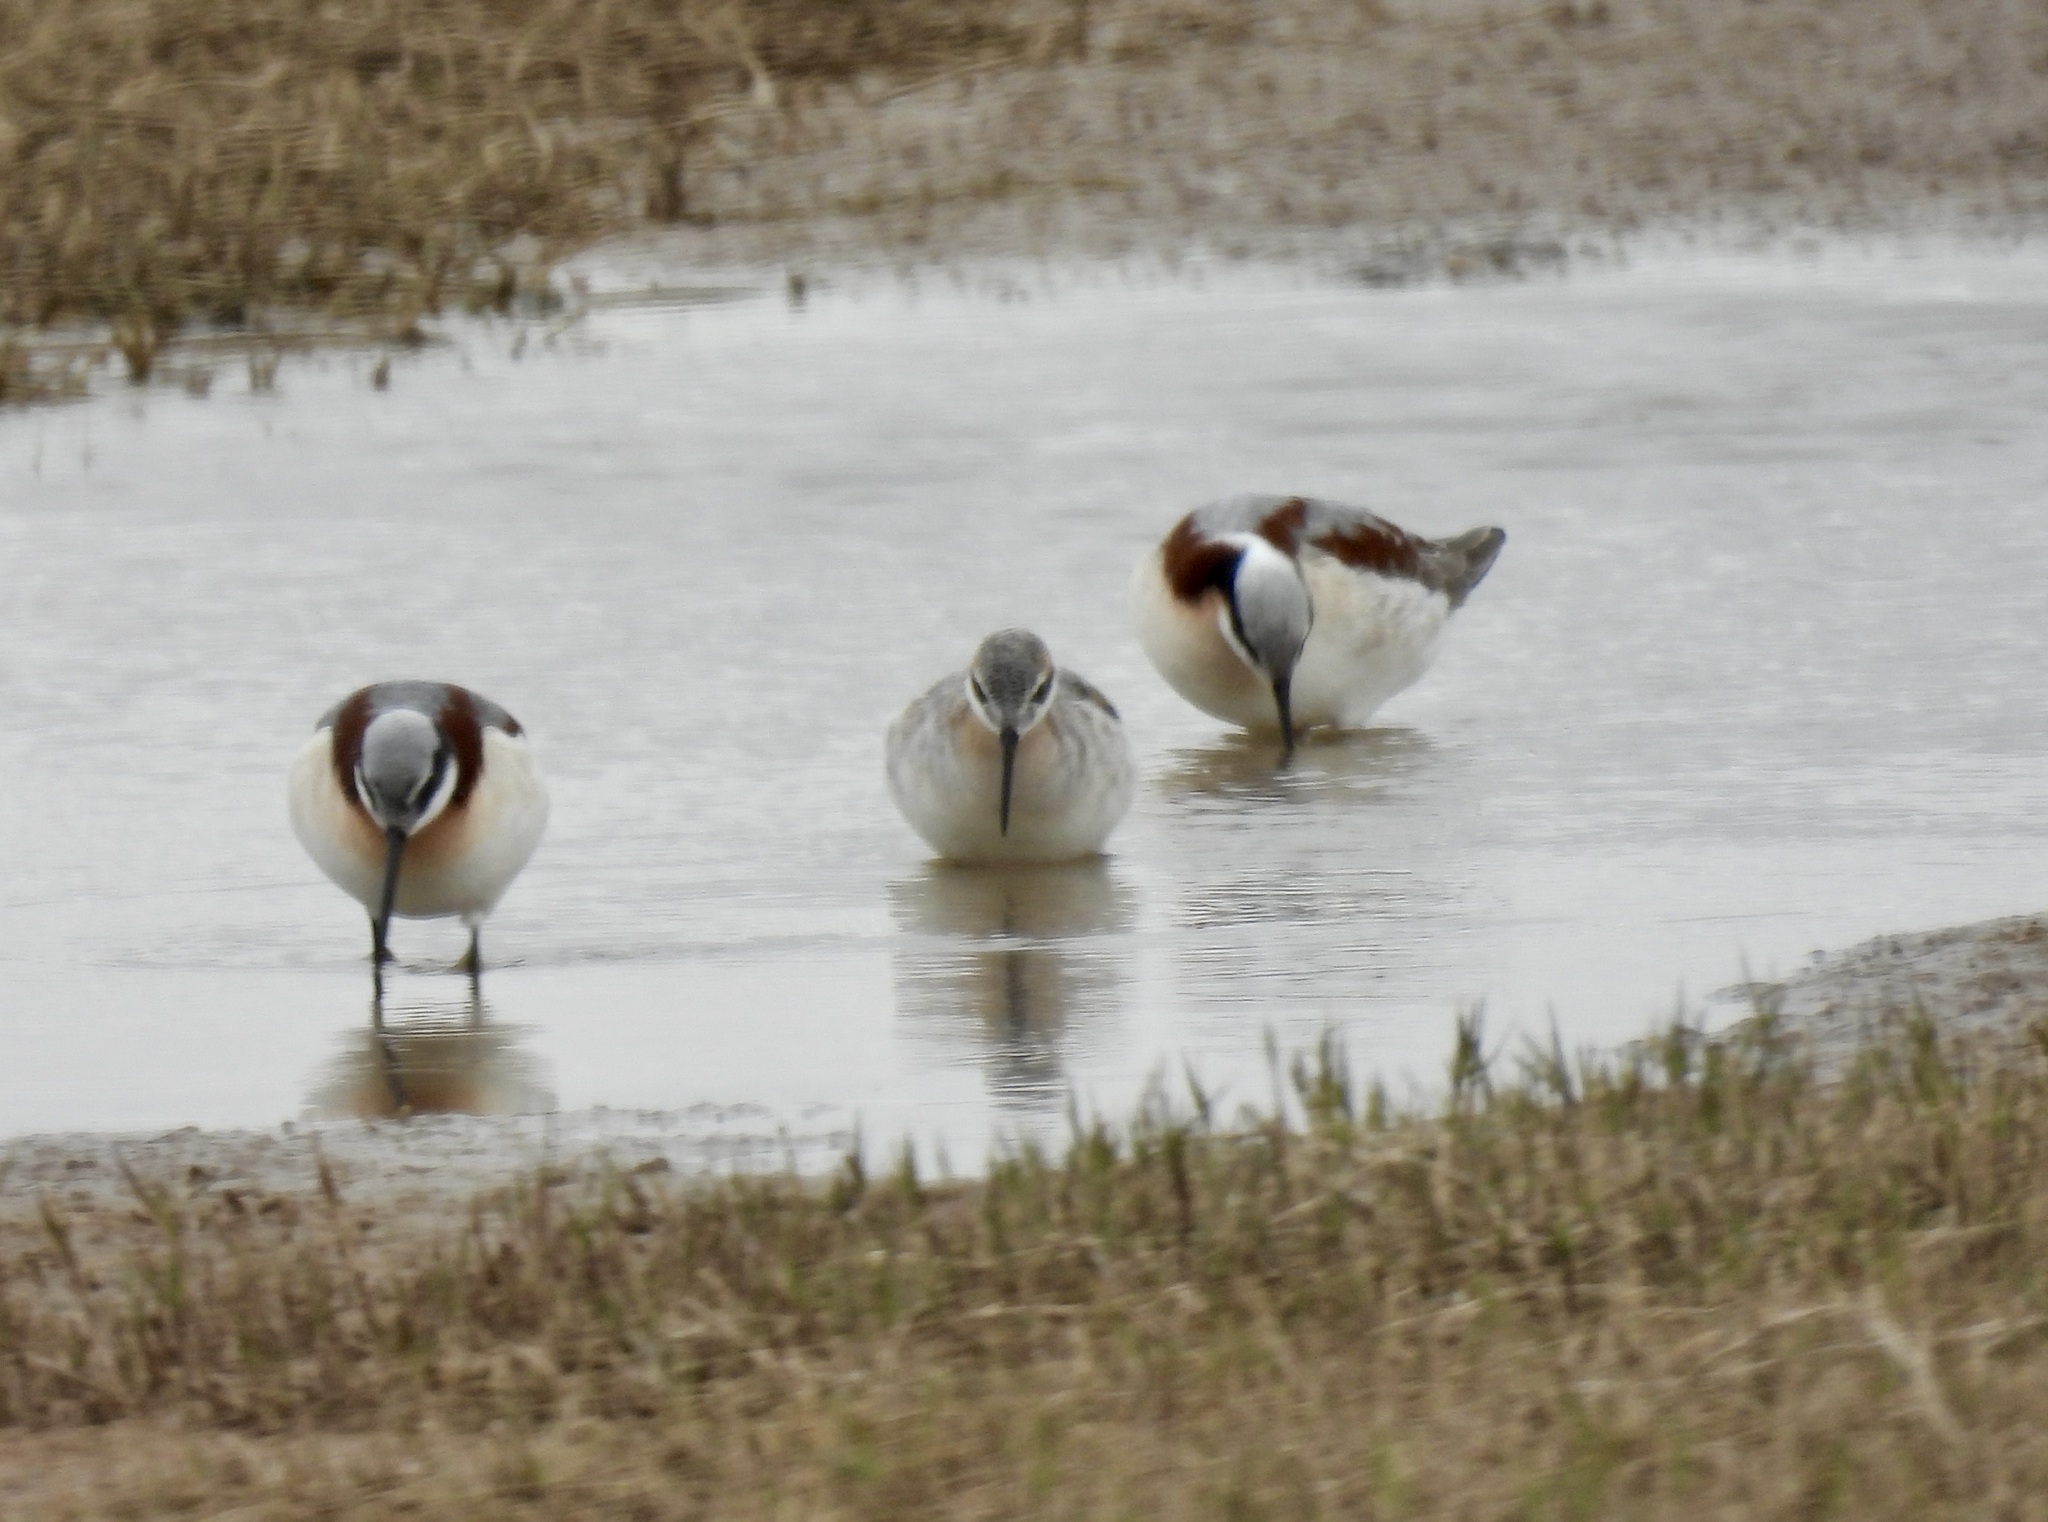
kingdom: Animalia
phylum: Chordata
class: Aves
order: Charadriiformes
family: Scolopacidae
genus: Phalaropus
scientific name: Phalaropus tricolor
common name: Wilson's phalarope
